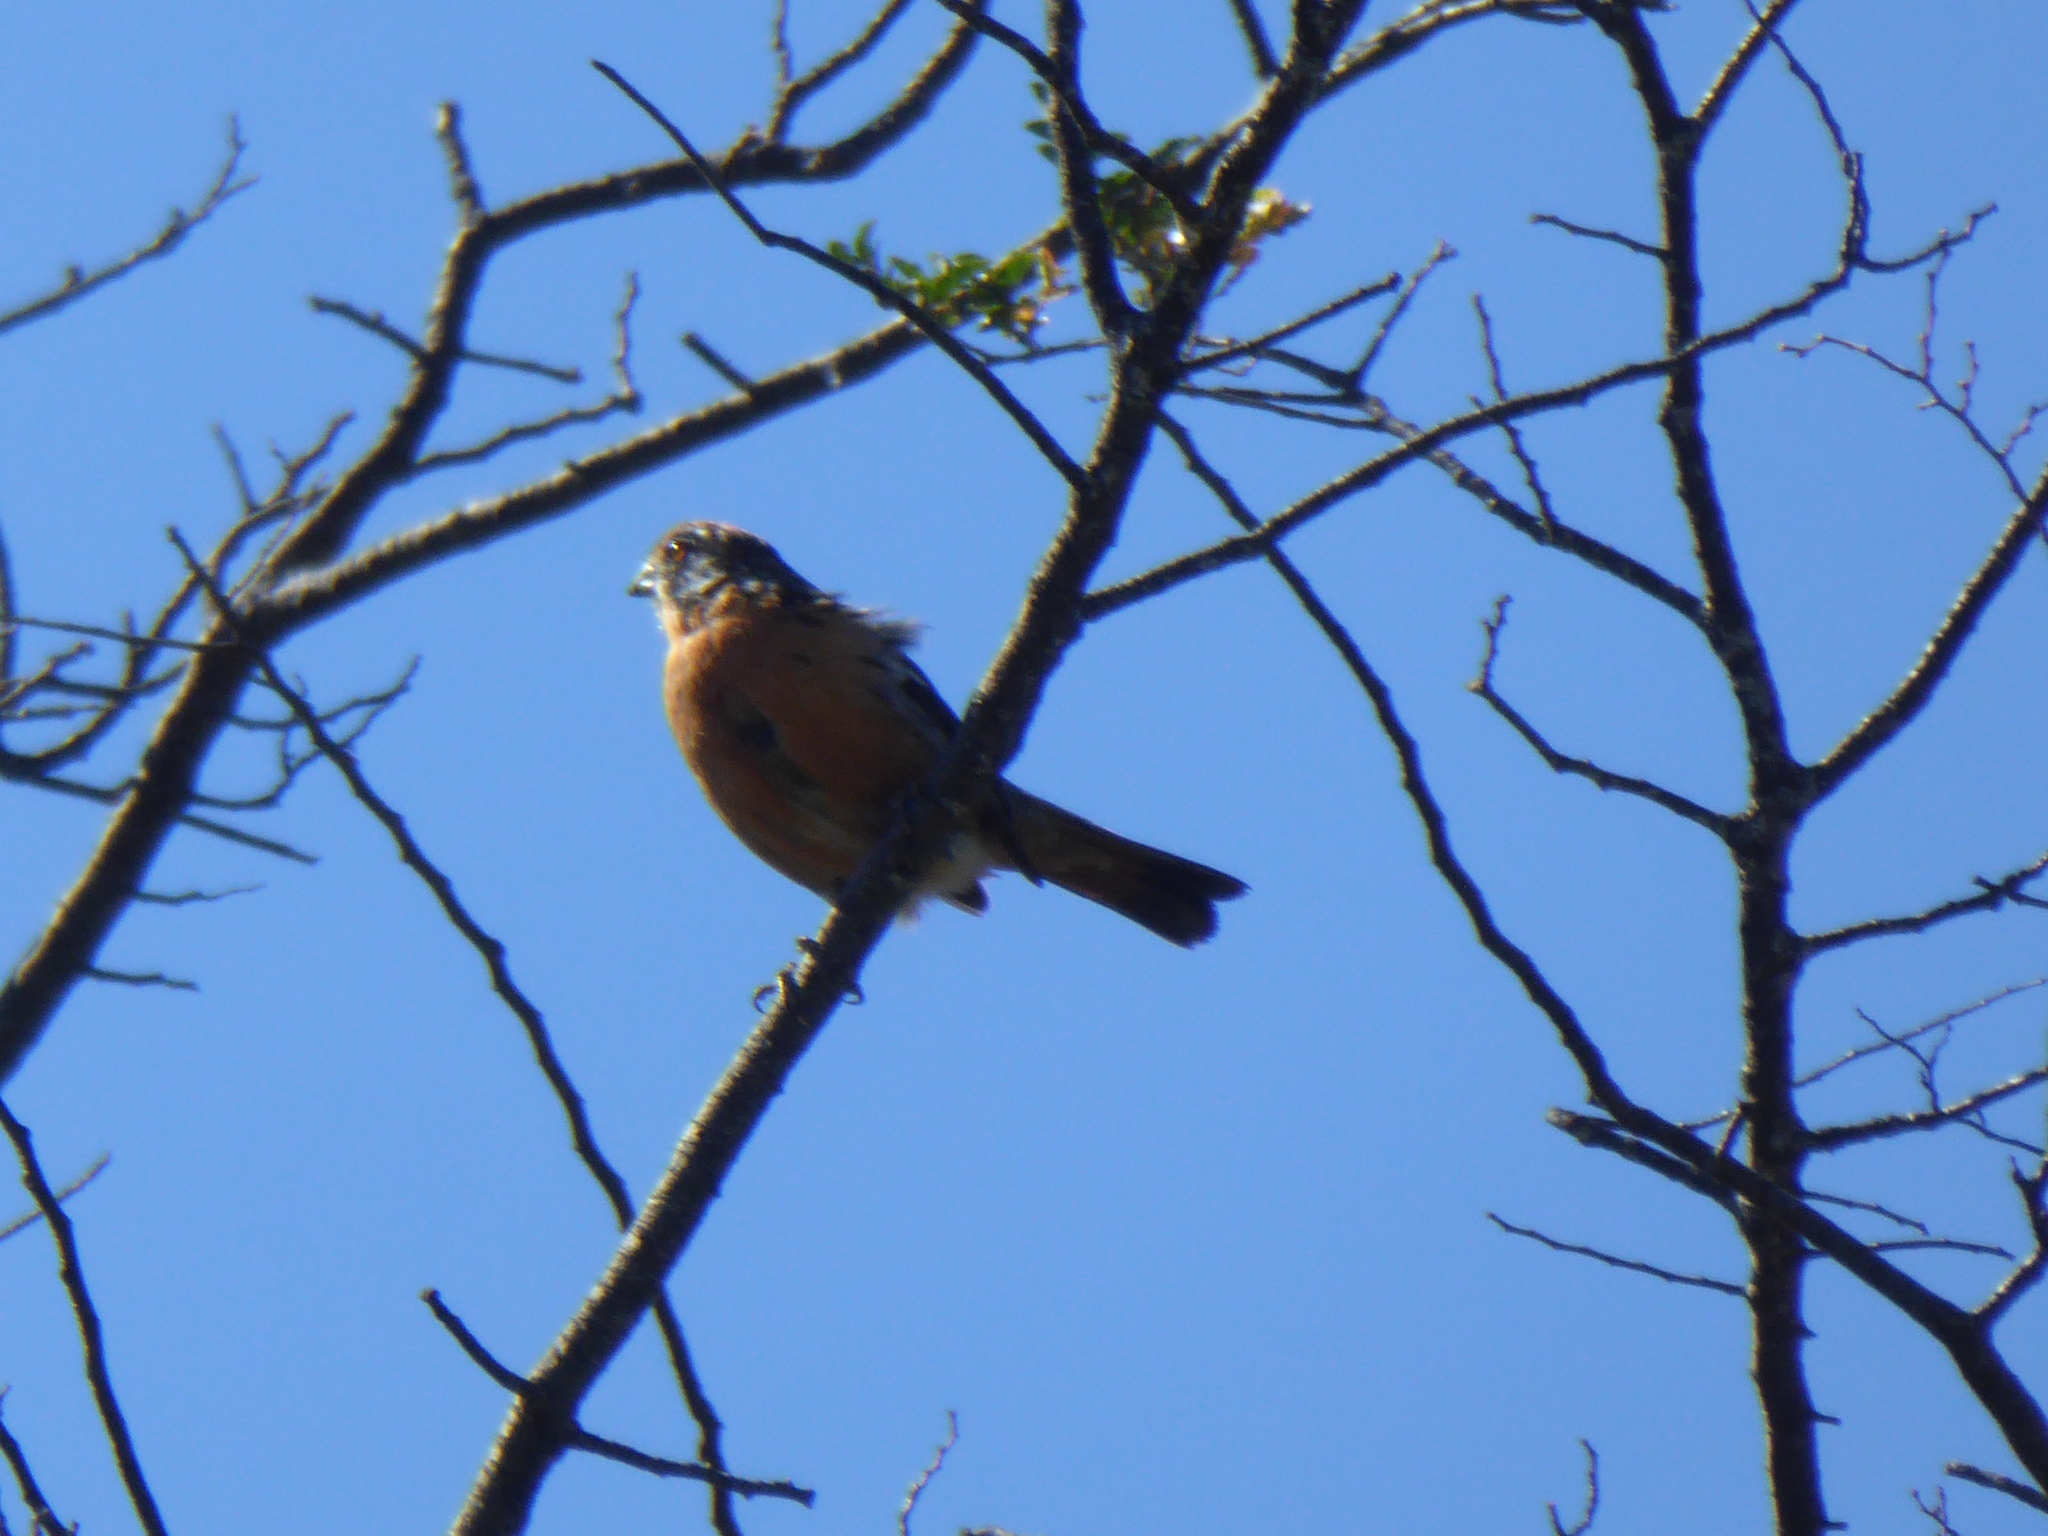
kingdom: Animalia
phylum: Chordata
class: Aves
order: Passeriformes
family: Cotingidae
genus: Phytotoma
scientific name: Phytotoma rara
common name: Rufous-tailed plantcutter
